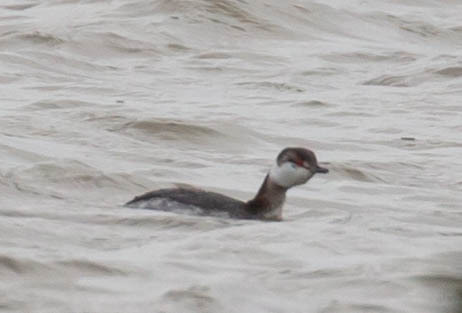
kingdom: Animalia
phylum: Chordata
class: Aves
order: Podicipediformes
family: Podicipedidae
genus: Podiceps
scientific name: Podiceps auritus
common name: Horned grebe
